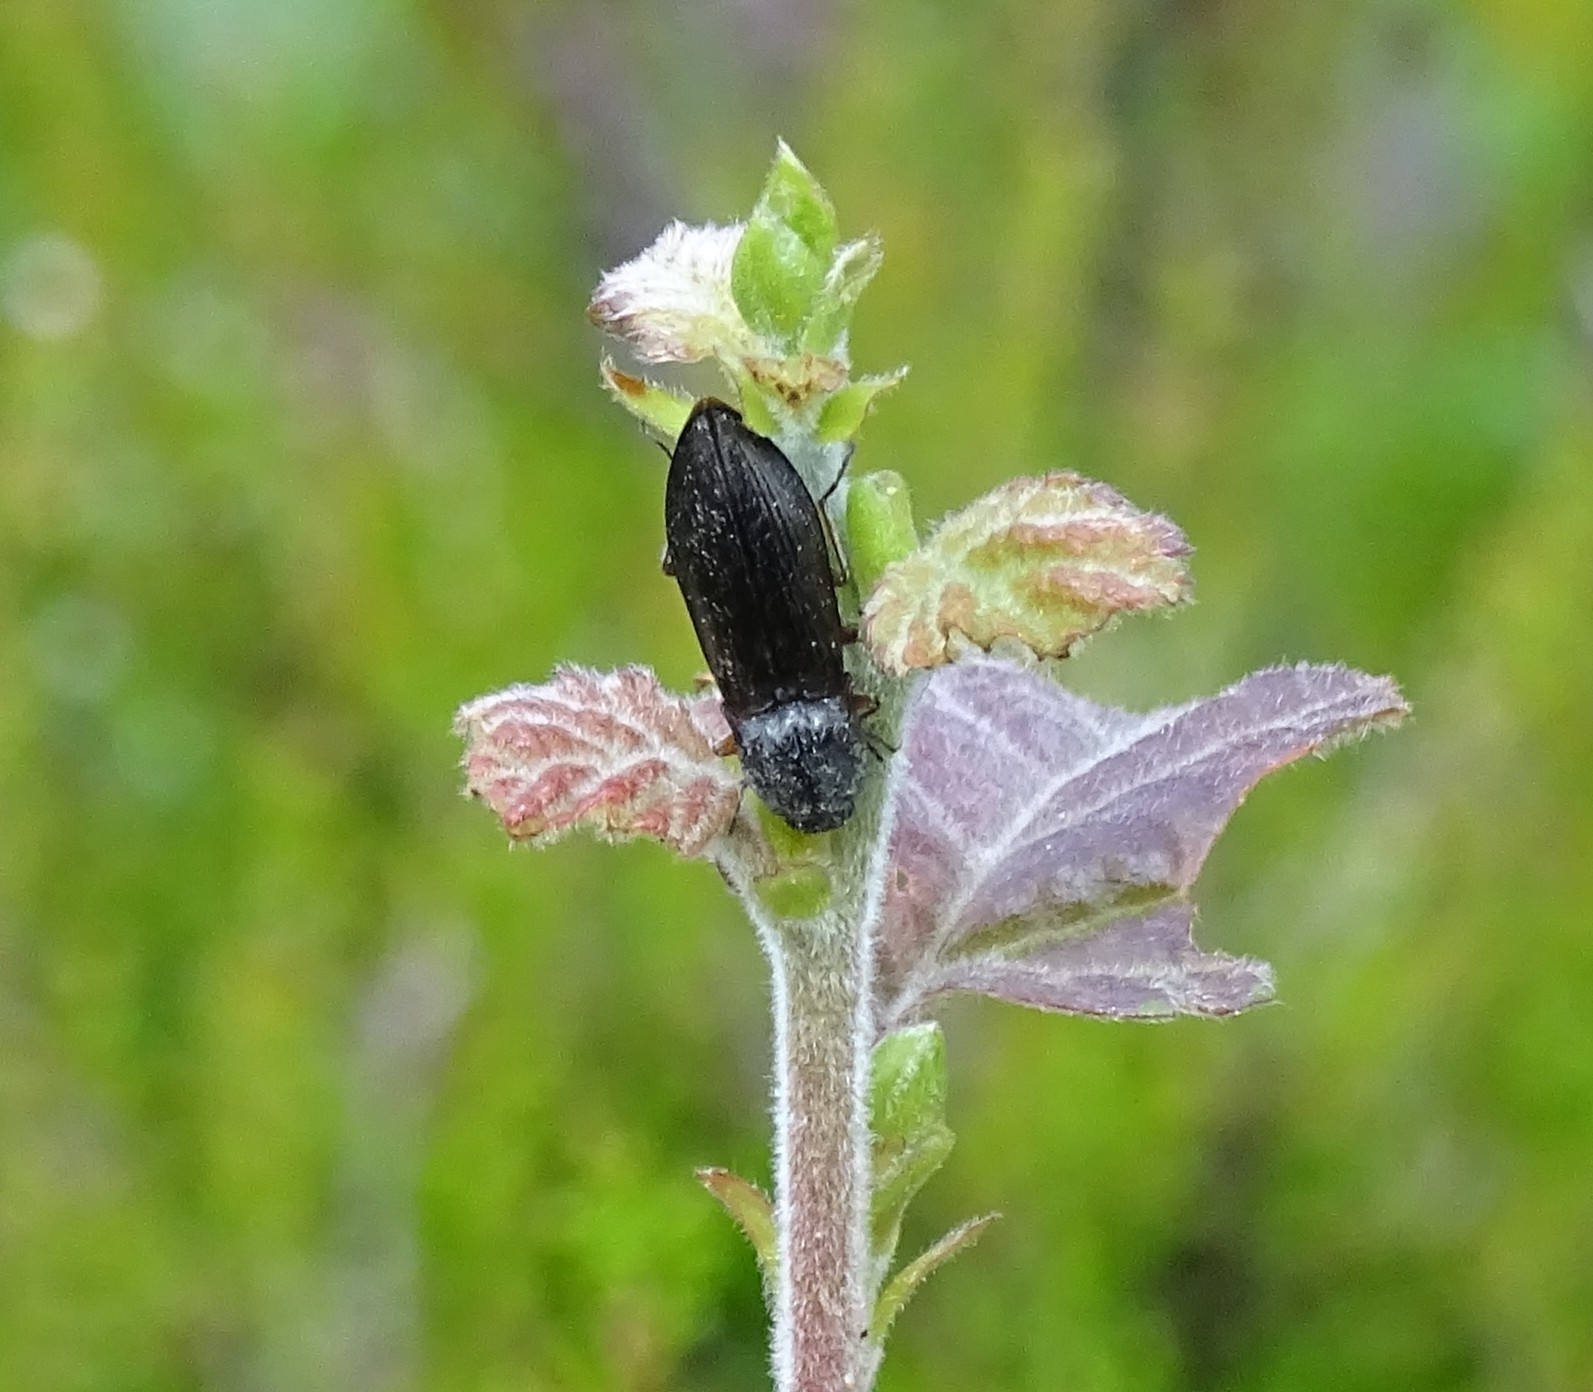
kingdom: Animalia
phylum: Arthropoda
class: Insecta
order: Coleoptera
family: Elateridae
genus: Paraphotistus
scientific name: Paraphotistus impressus
